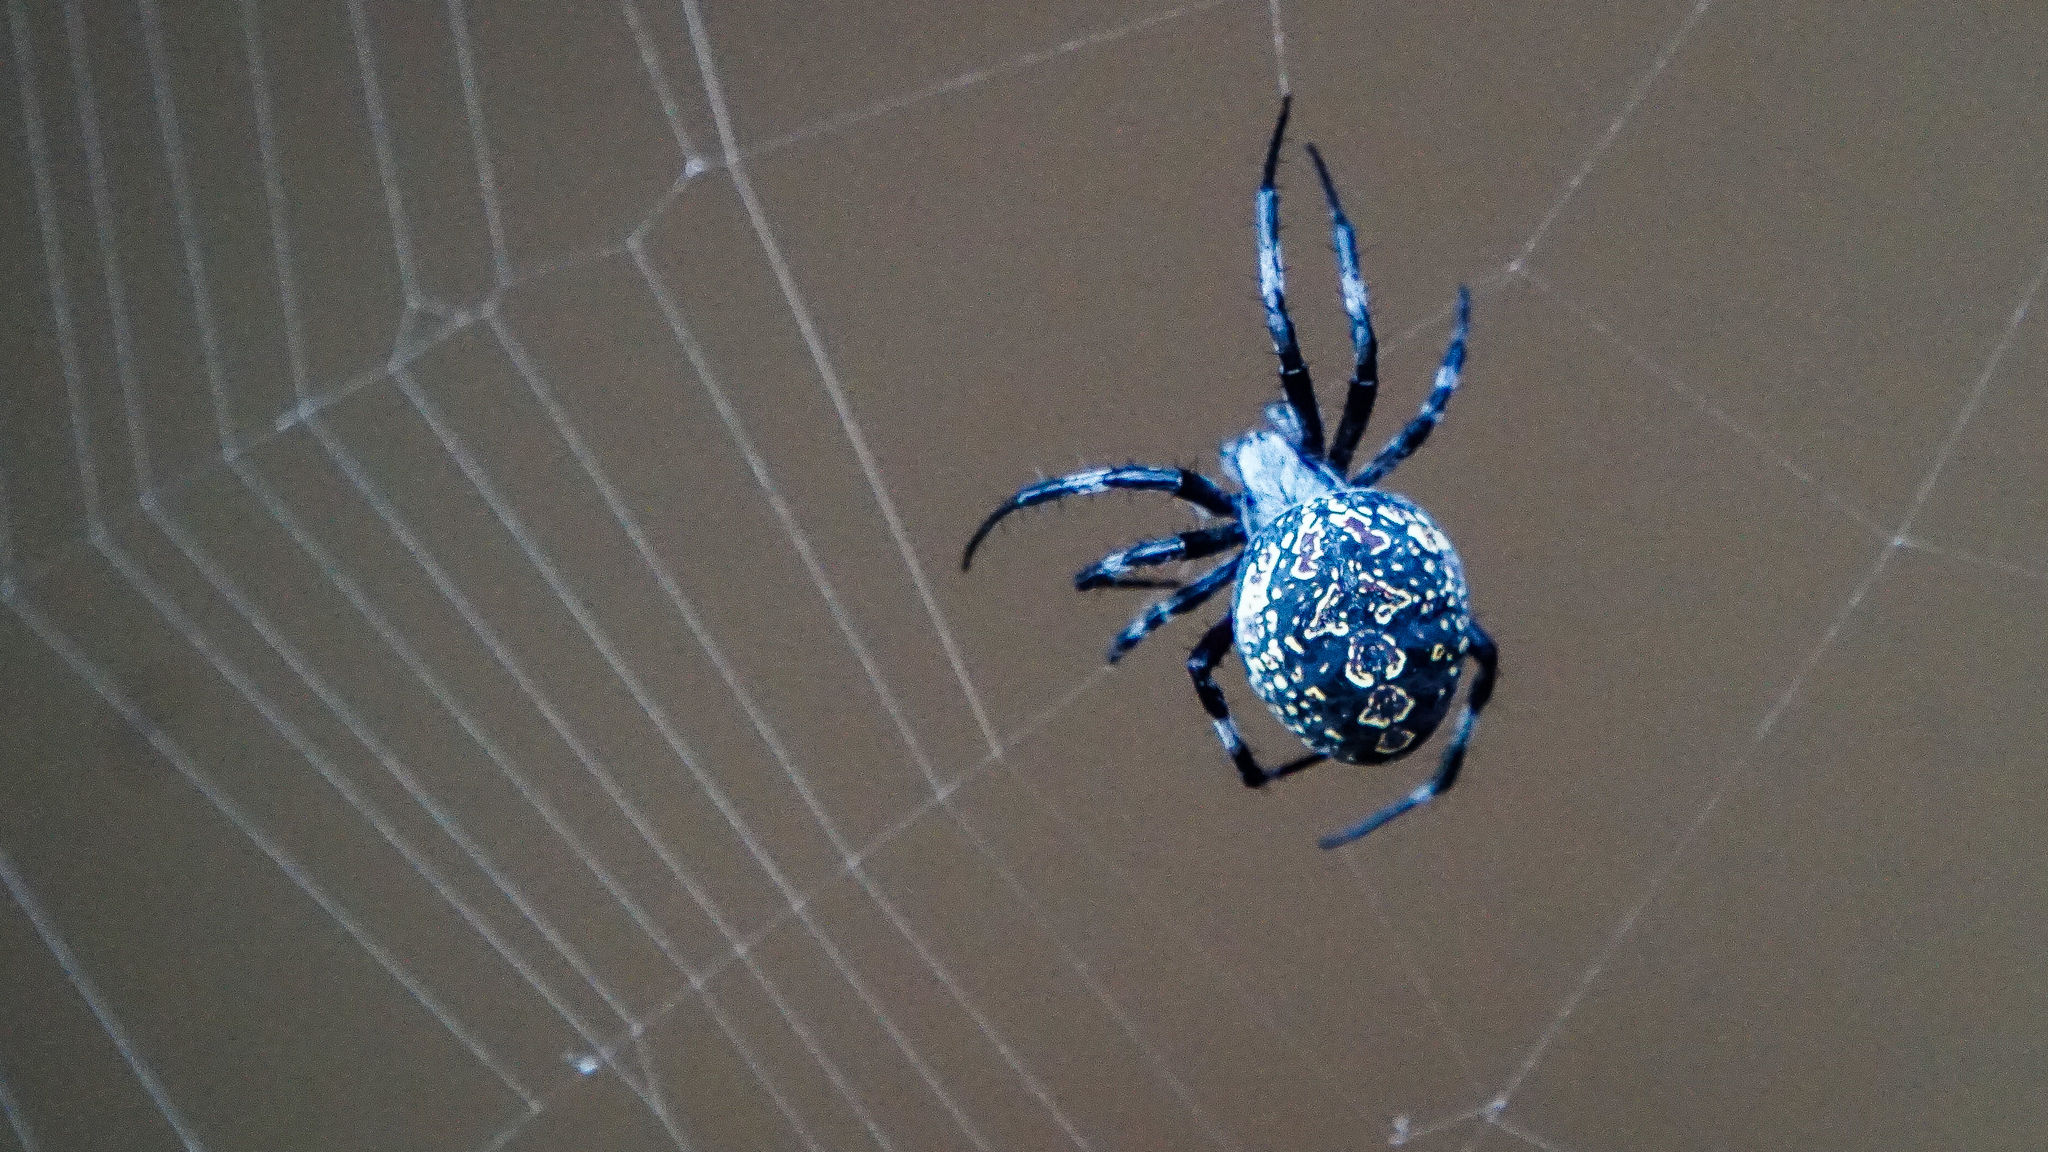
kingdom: Animalia
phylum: Arthropoda
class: Arachnida
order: Araneae
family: Araneidae
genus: Neoscona
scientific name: Neoscona oaxacensis
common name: Orb weavers
